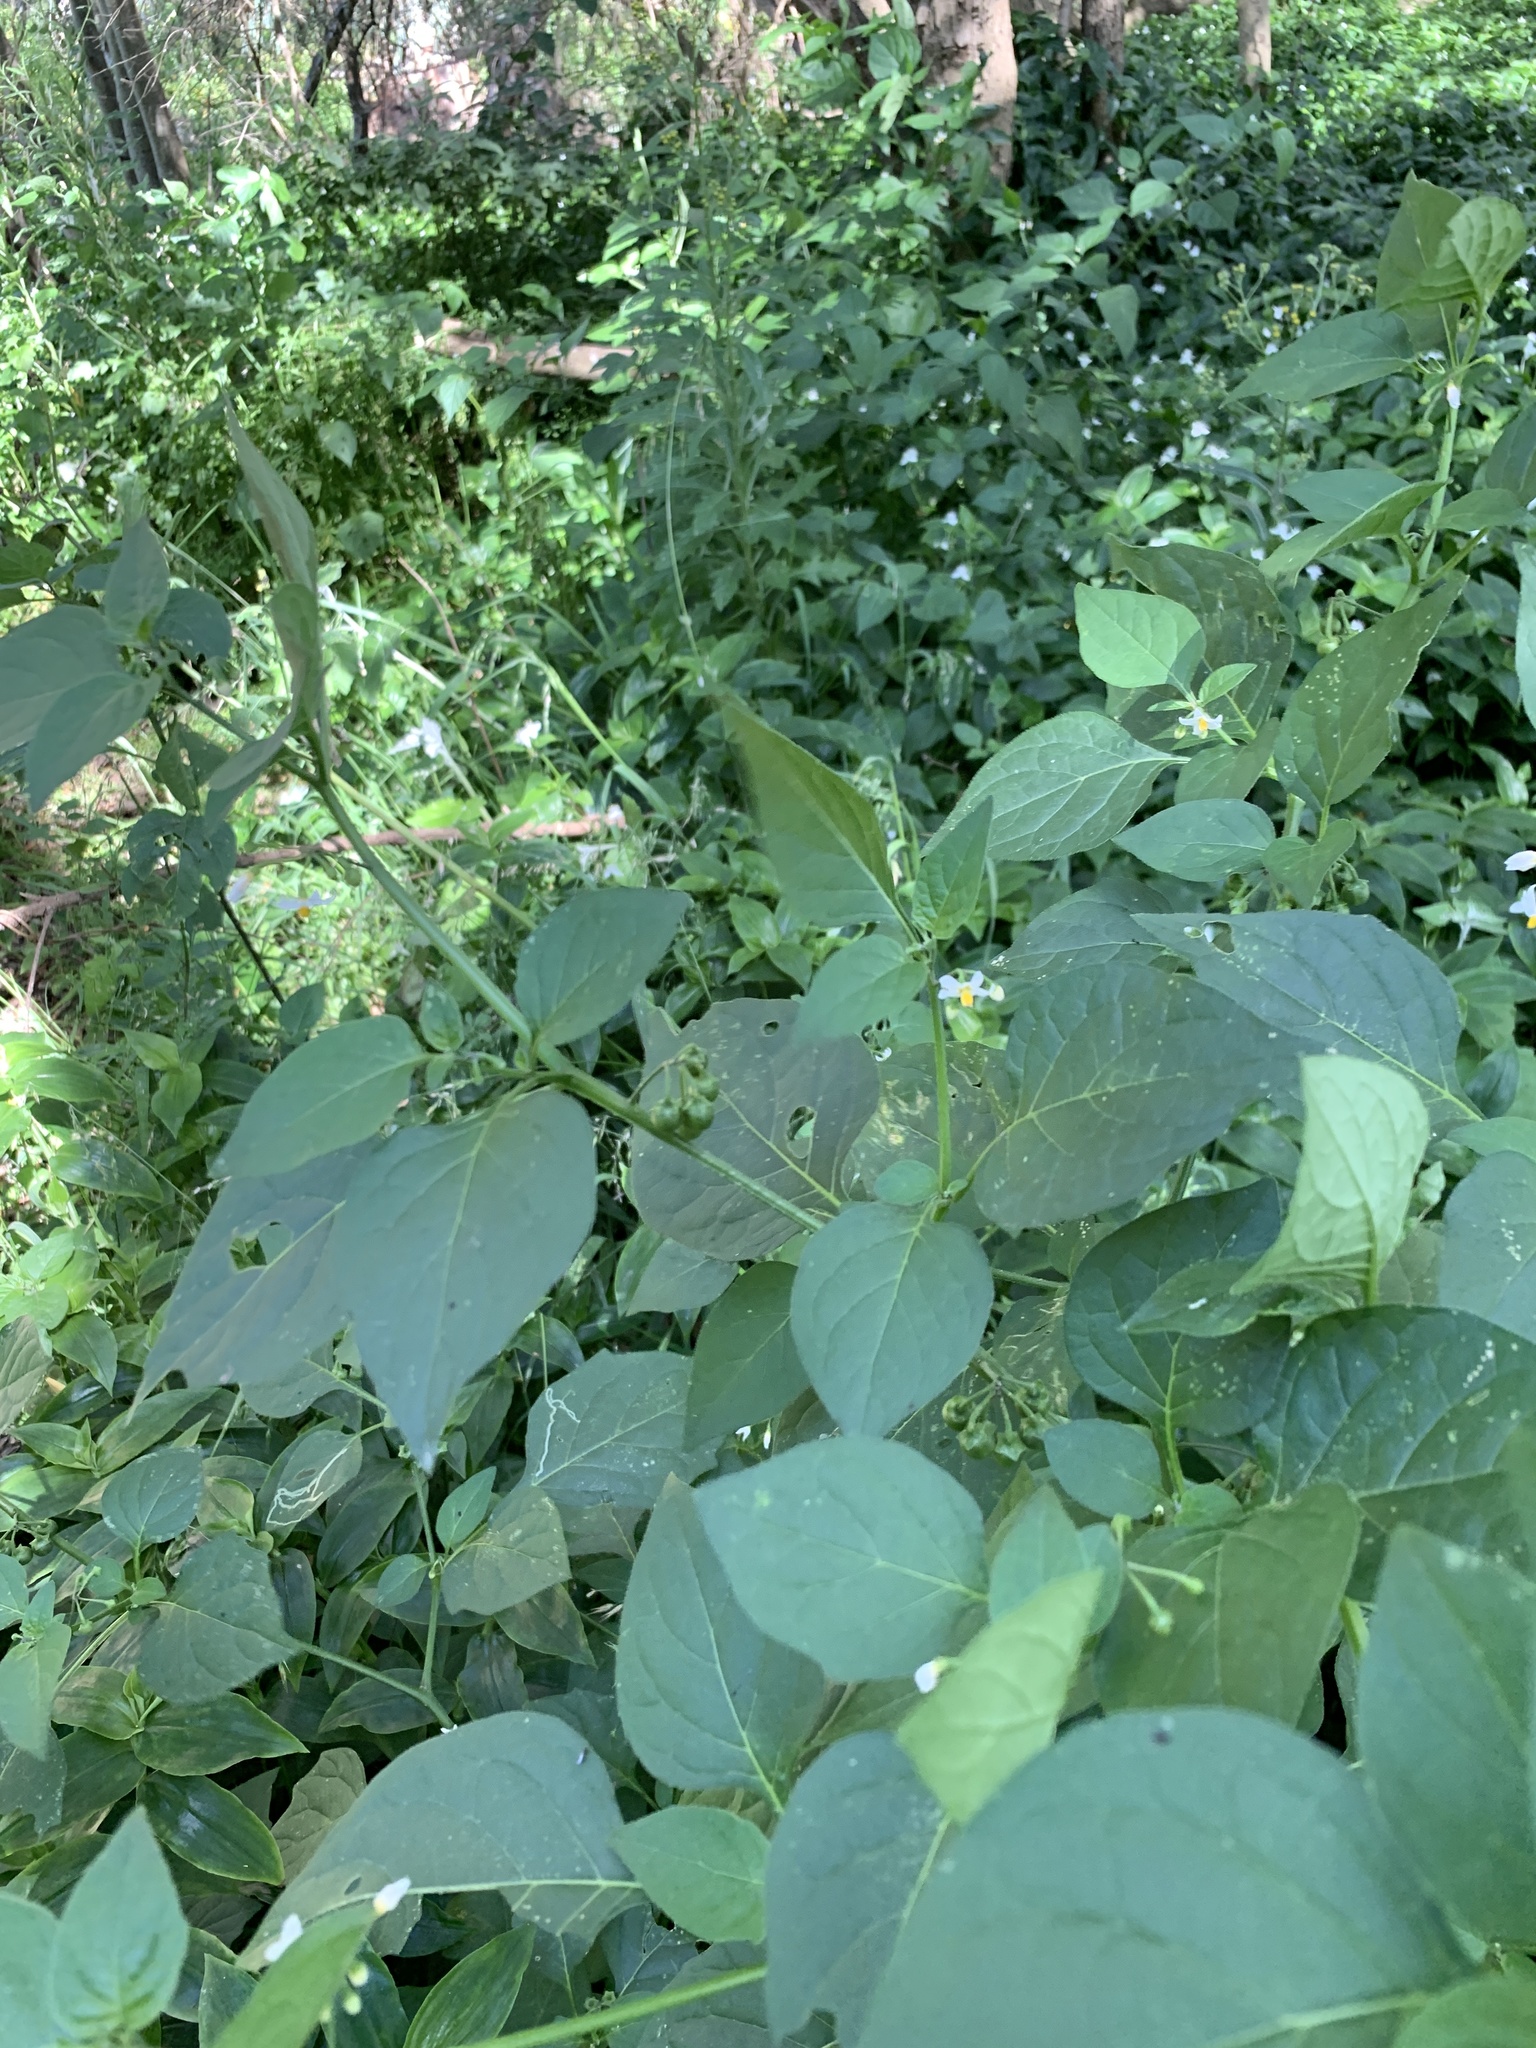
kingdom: Plantae
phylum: Tracheophyta
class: Magnoliopsida
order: Solanales
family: Solanaceae
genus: Solanum
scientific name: Solanum nigrum
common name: Black nightshade
